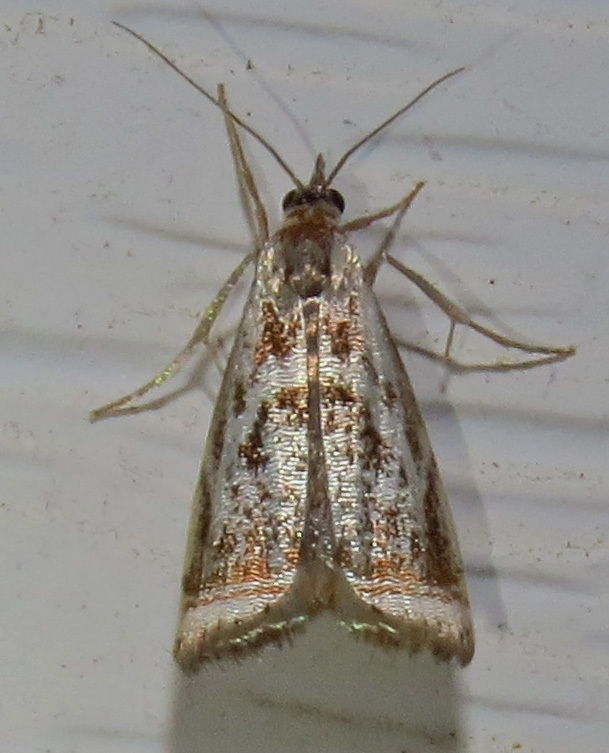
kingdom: Animalia
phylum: Arthropoda
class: Insecta
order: Lepidoptera
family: Crambidae
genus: Microcrambus
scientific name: Microcrambus elegans
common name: Elegant grass-veneer
